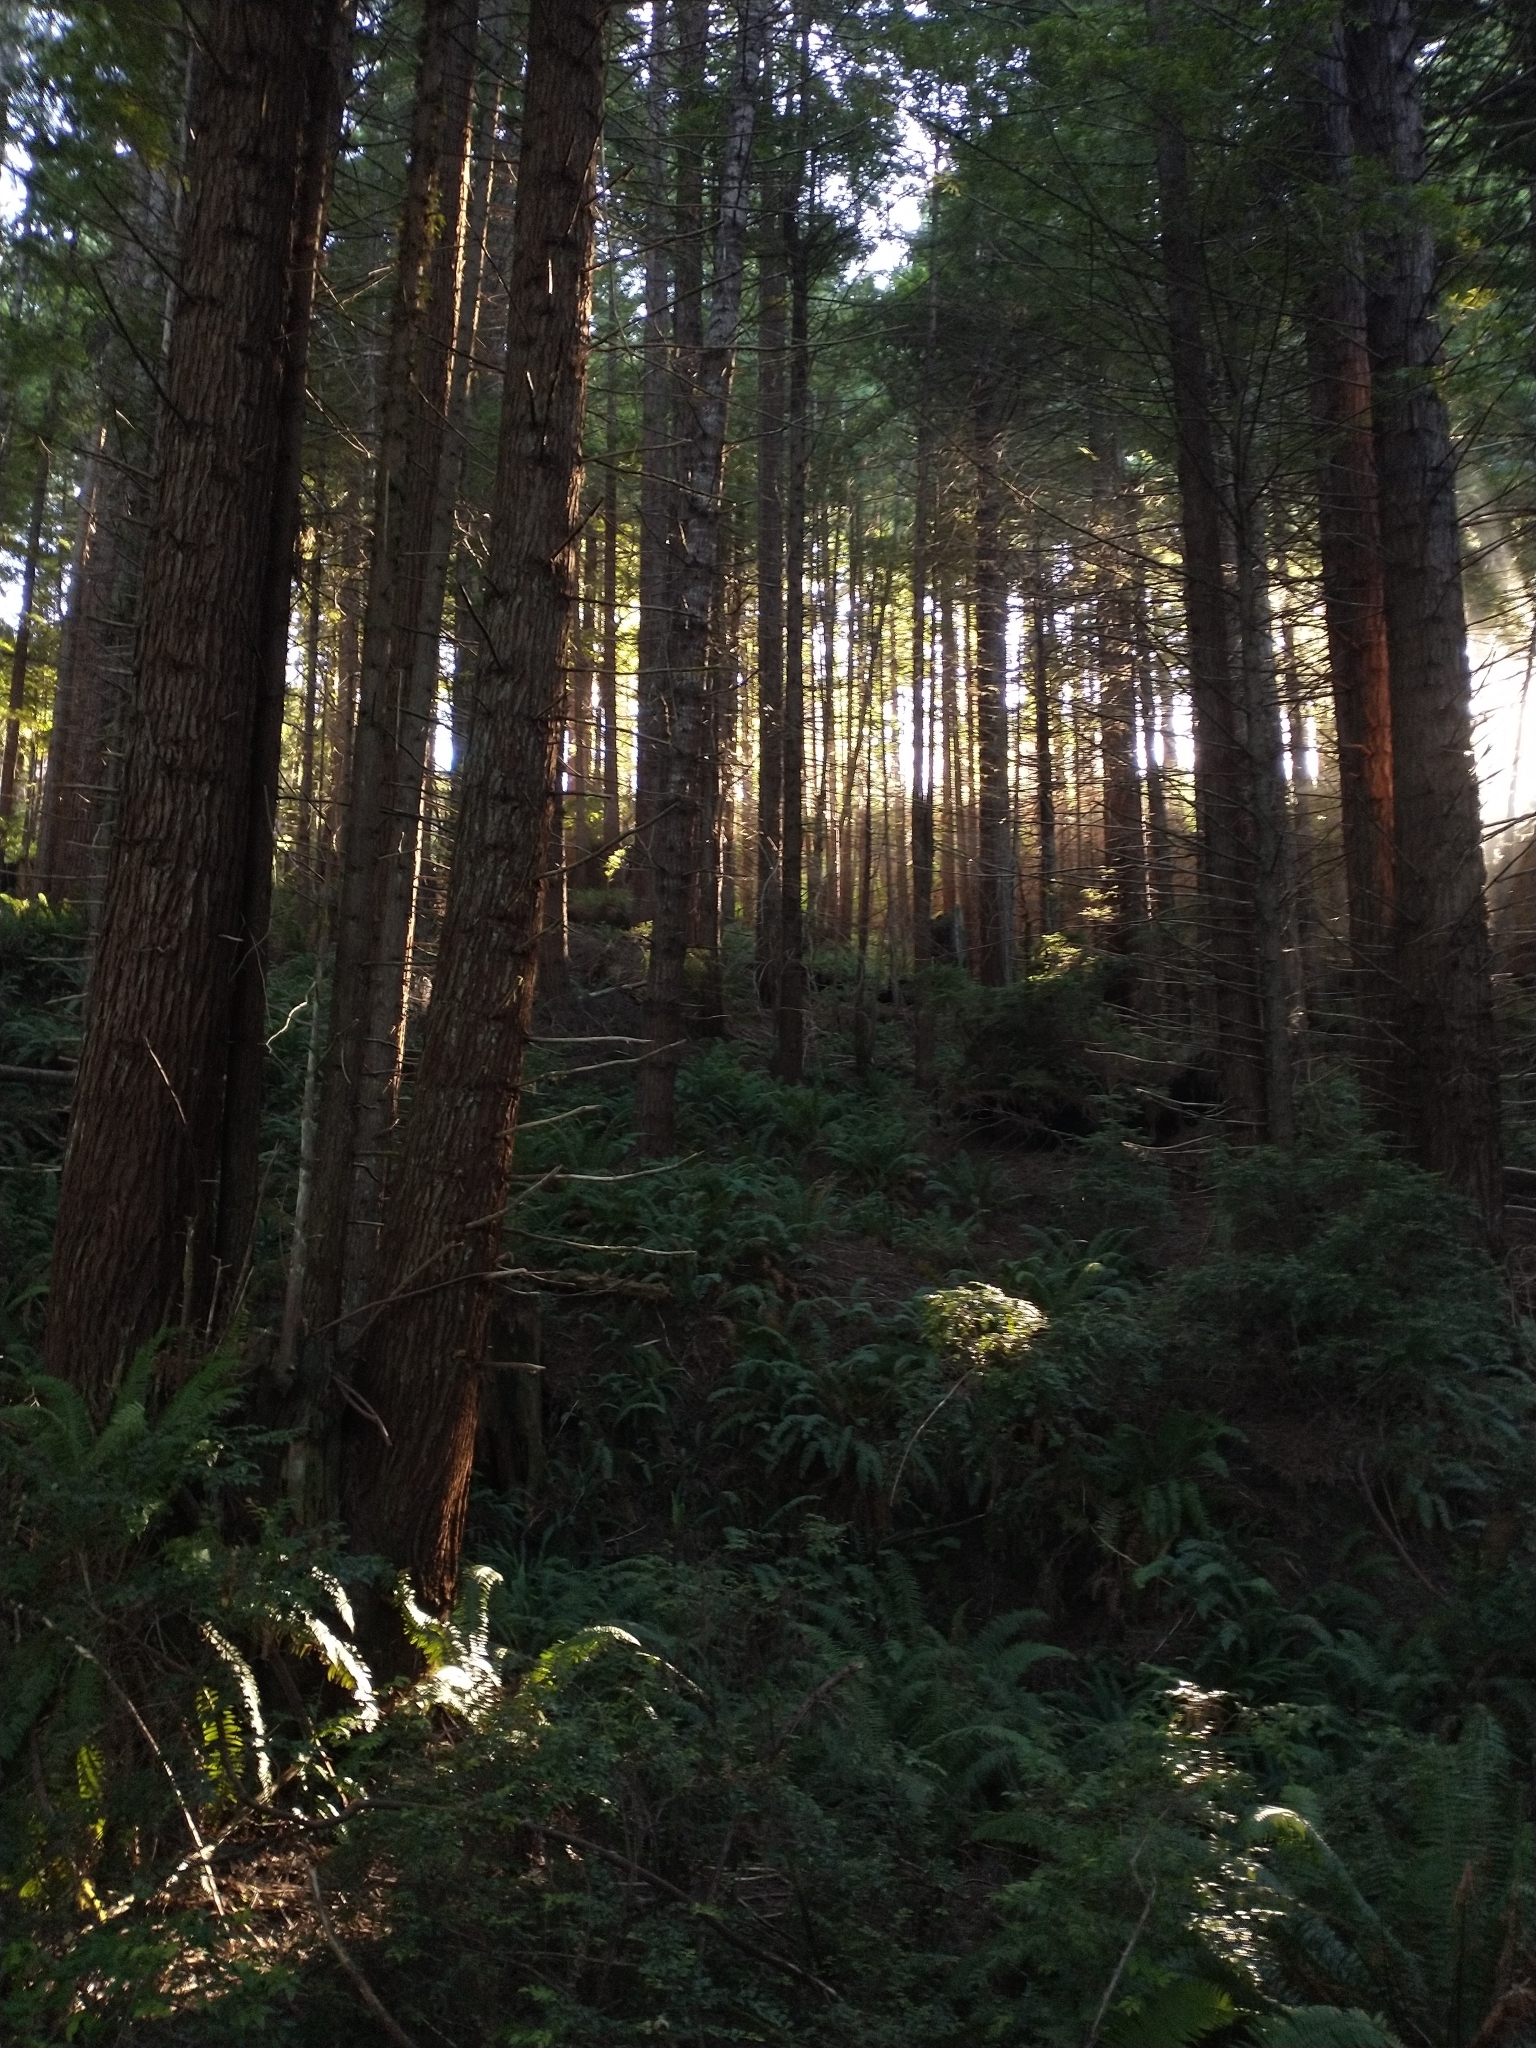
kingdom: Plantae
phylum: Tracheophyta
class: Pinopsida
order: Pinales
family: Cupressaceae
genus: Sequoia
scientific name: Sequoia sempervirens
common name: Coast redwood
